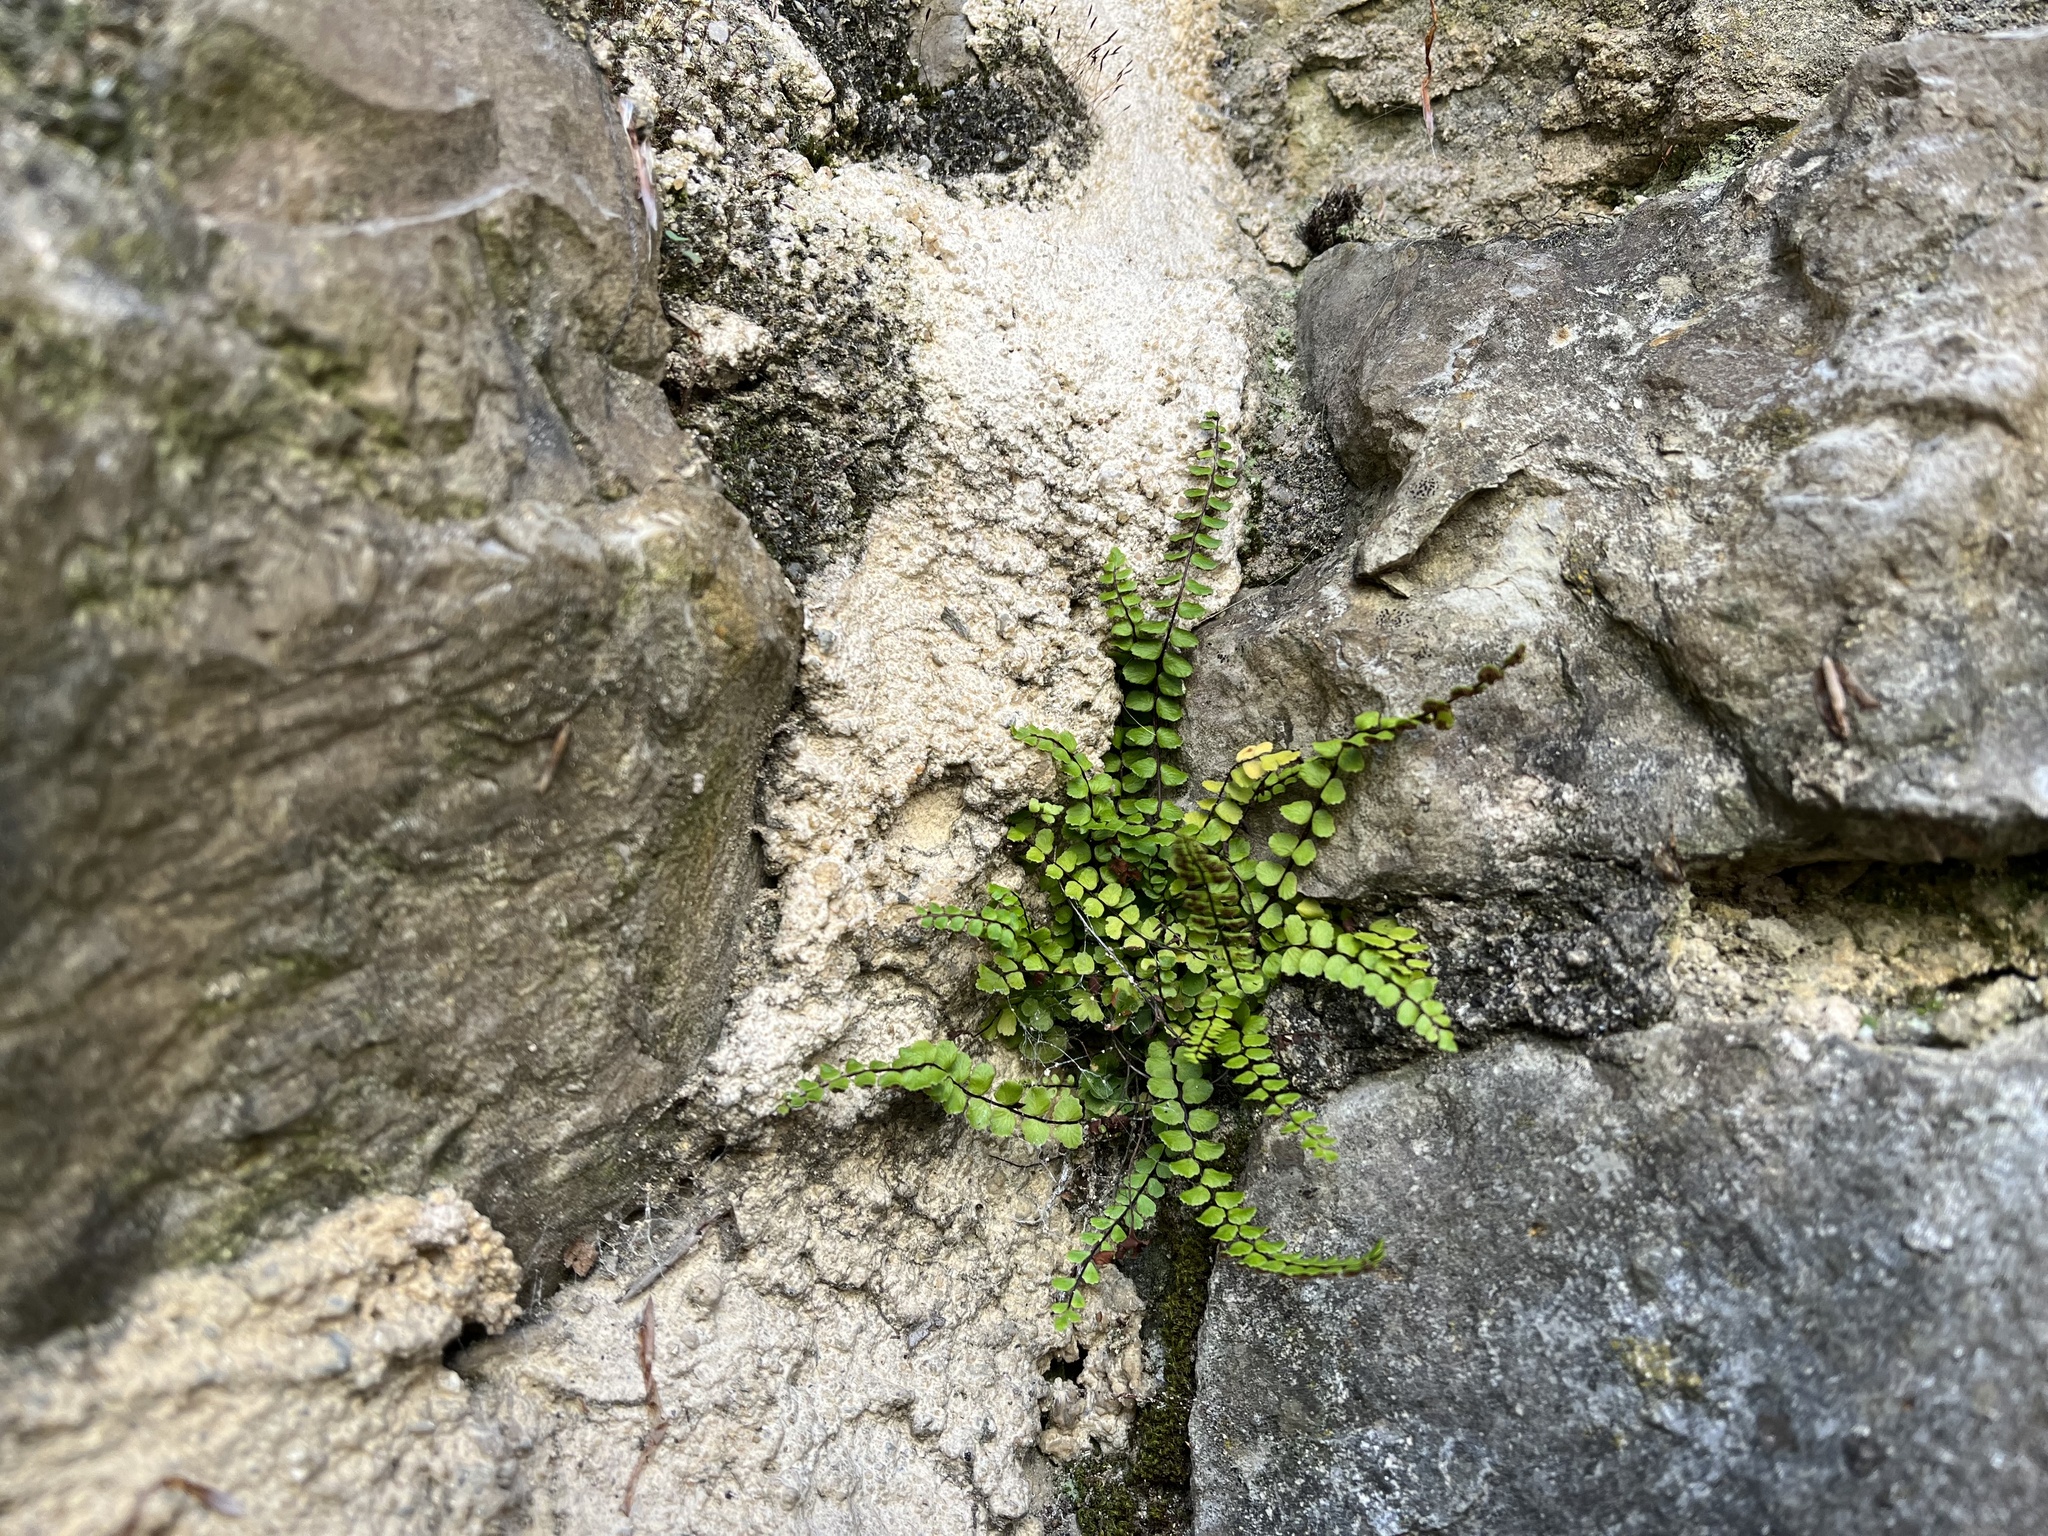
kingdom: Plantae
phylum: Tracheophyta
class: Polypodiopsida
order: Polypodiales
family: Aspleniaceae
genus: Asplenium
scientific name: Asplenium trichomanes
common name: Maidenhair spleenwort
